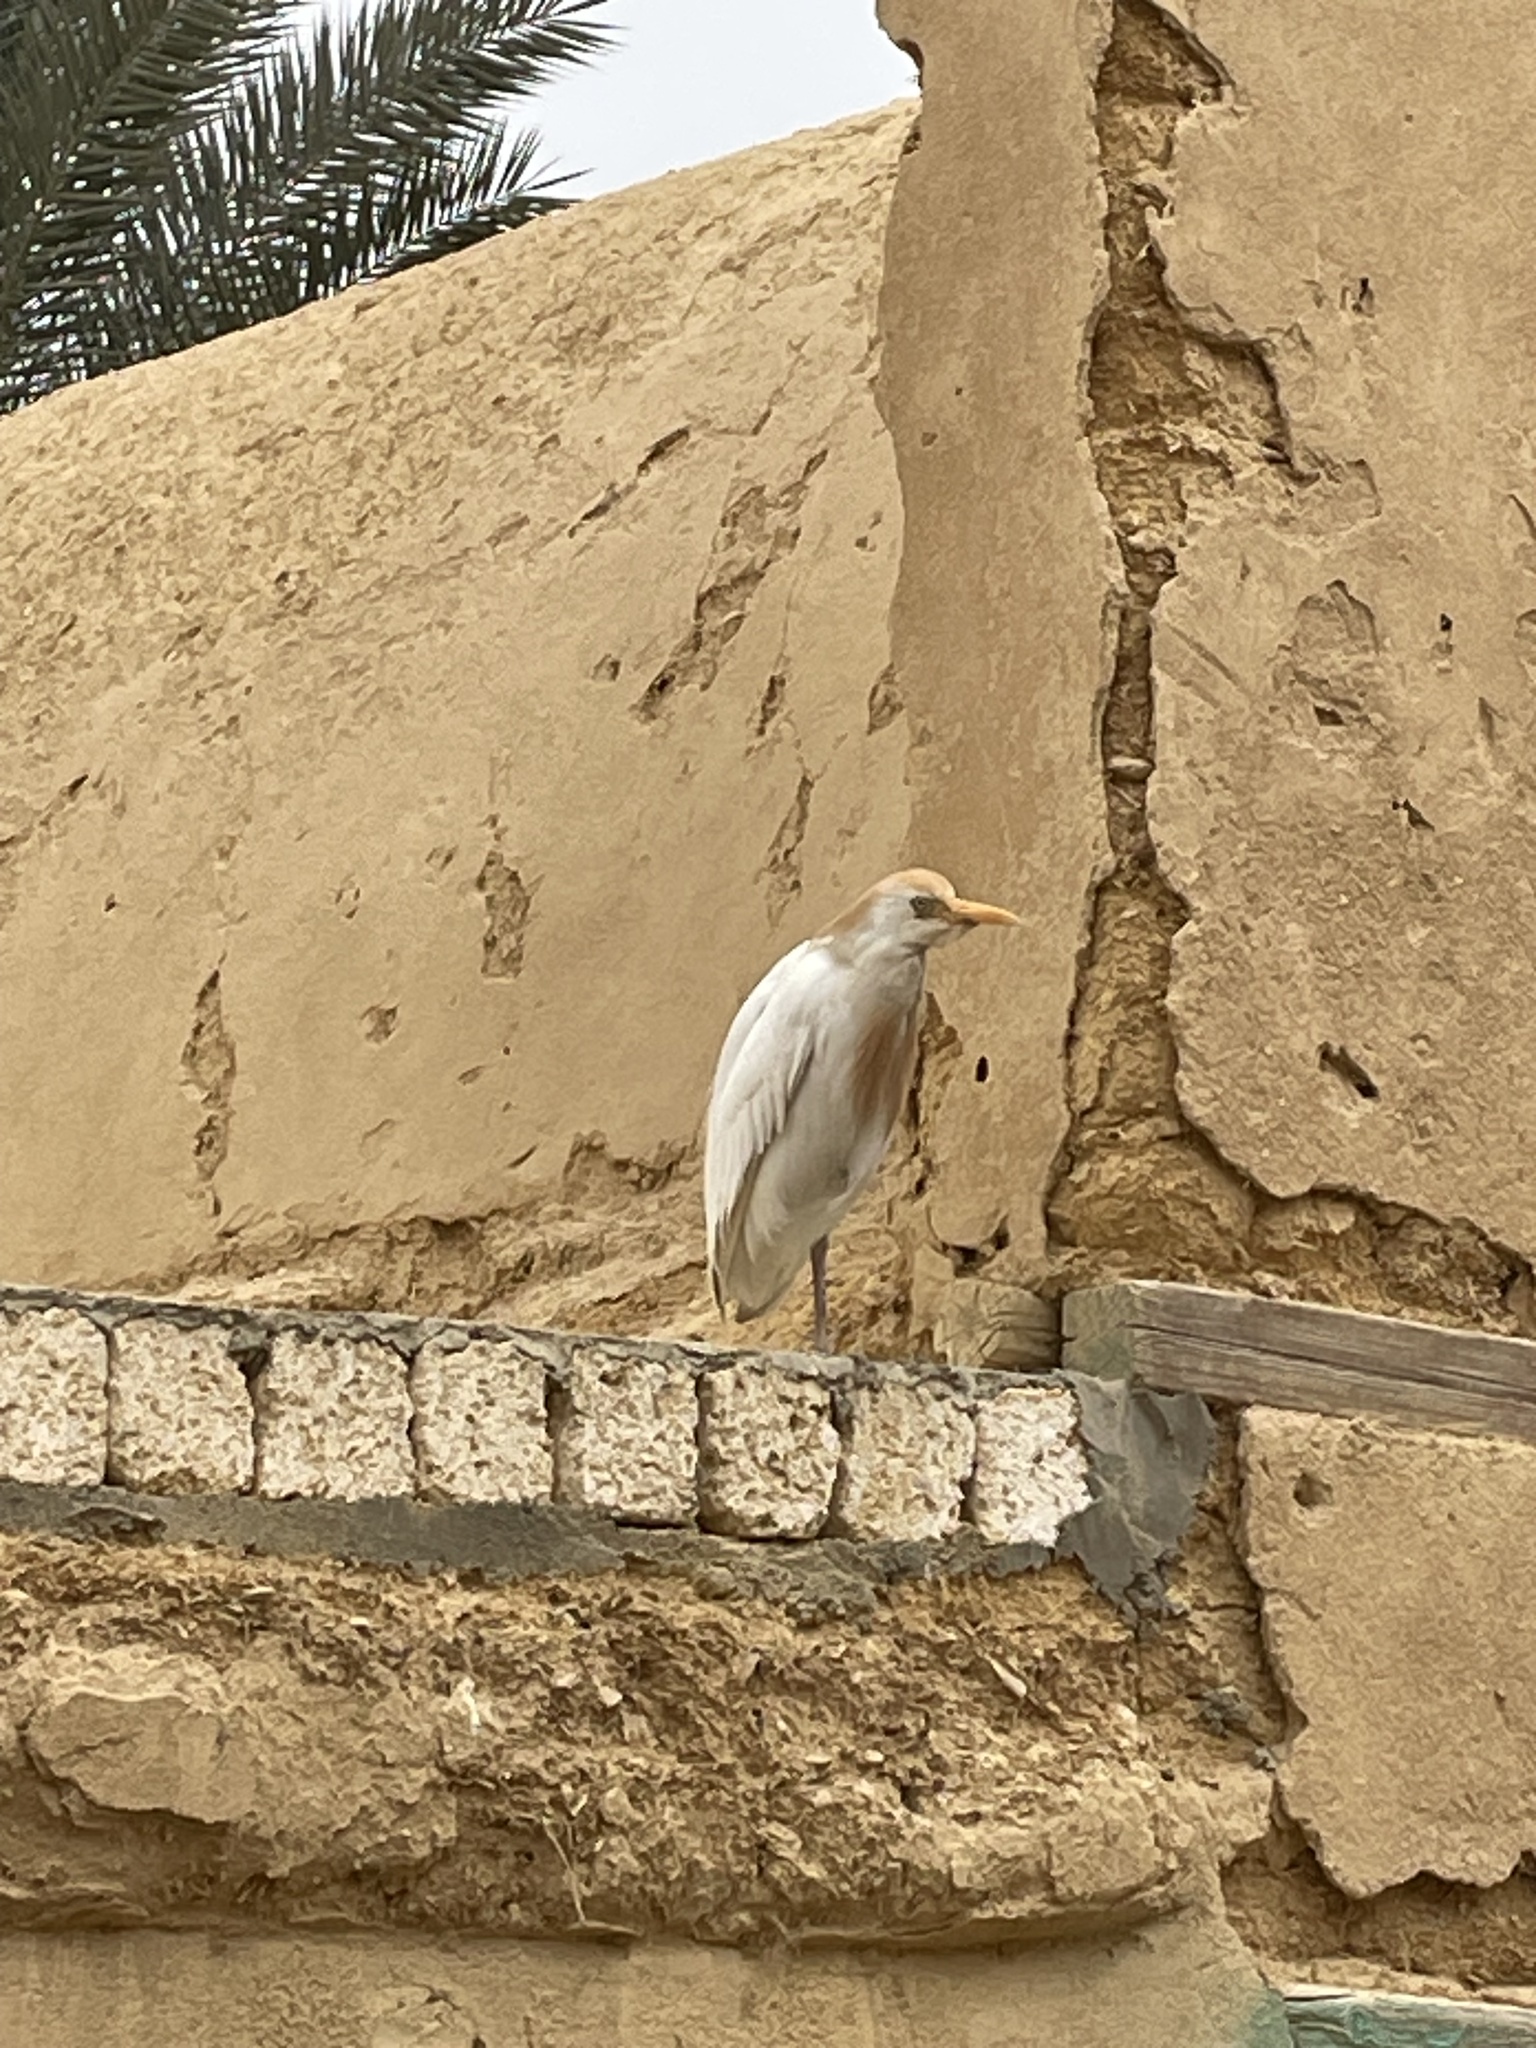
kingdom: Animalia
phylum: Chordata
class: Aves
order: Pelecaniformes
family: Ardeidae
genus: Bubulcus
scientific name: Bubulcus ibis
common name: Cattle egret
